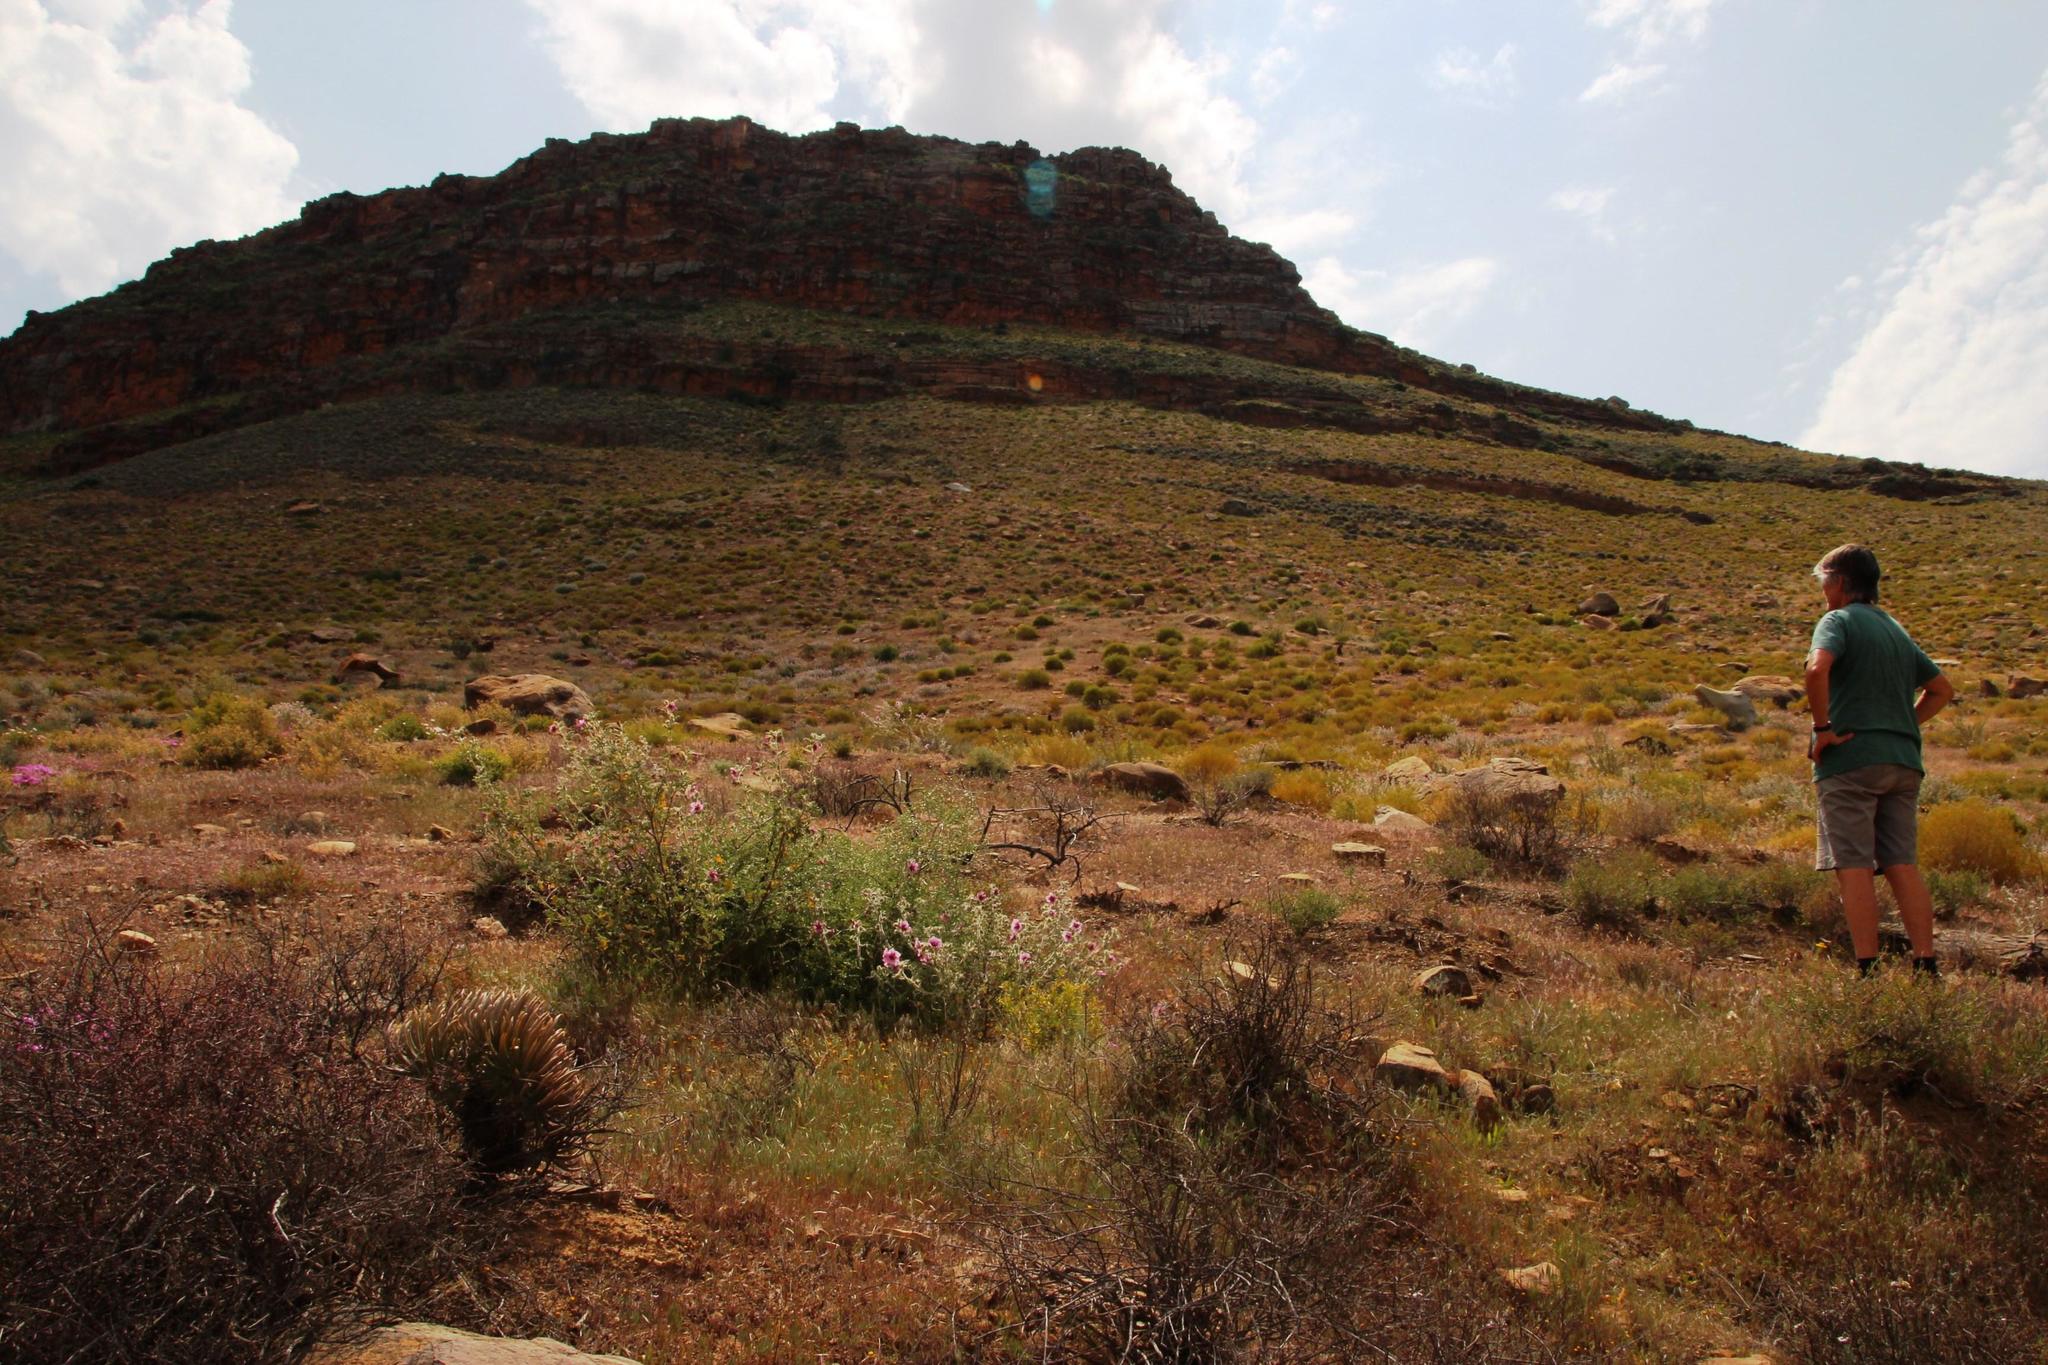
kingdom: Plantae
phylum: Tracheophyta
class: Magnoliopsida
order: Malvales
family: Malvaceae
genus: Anisodontea
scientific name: Anisodontea anomala
